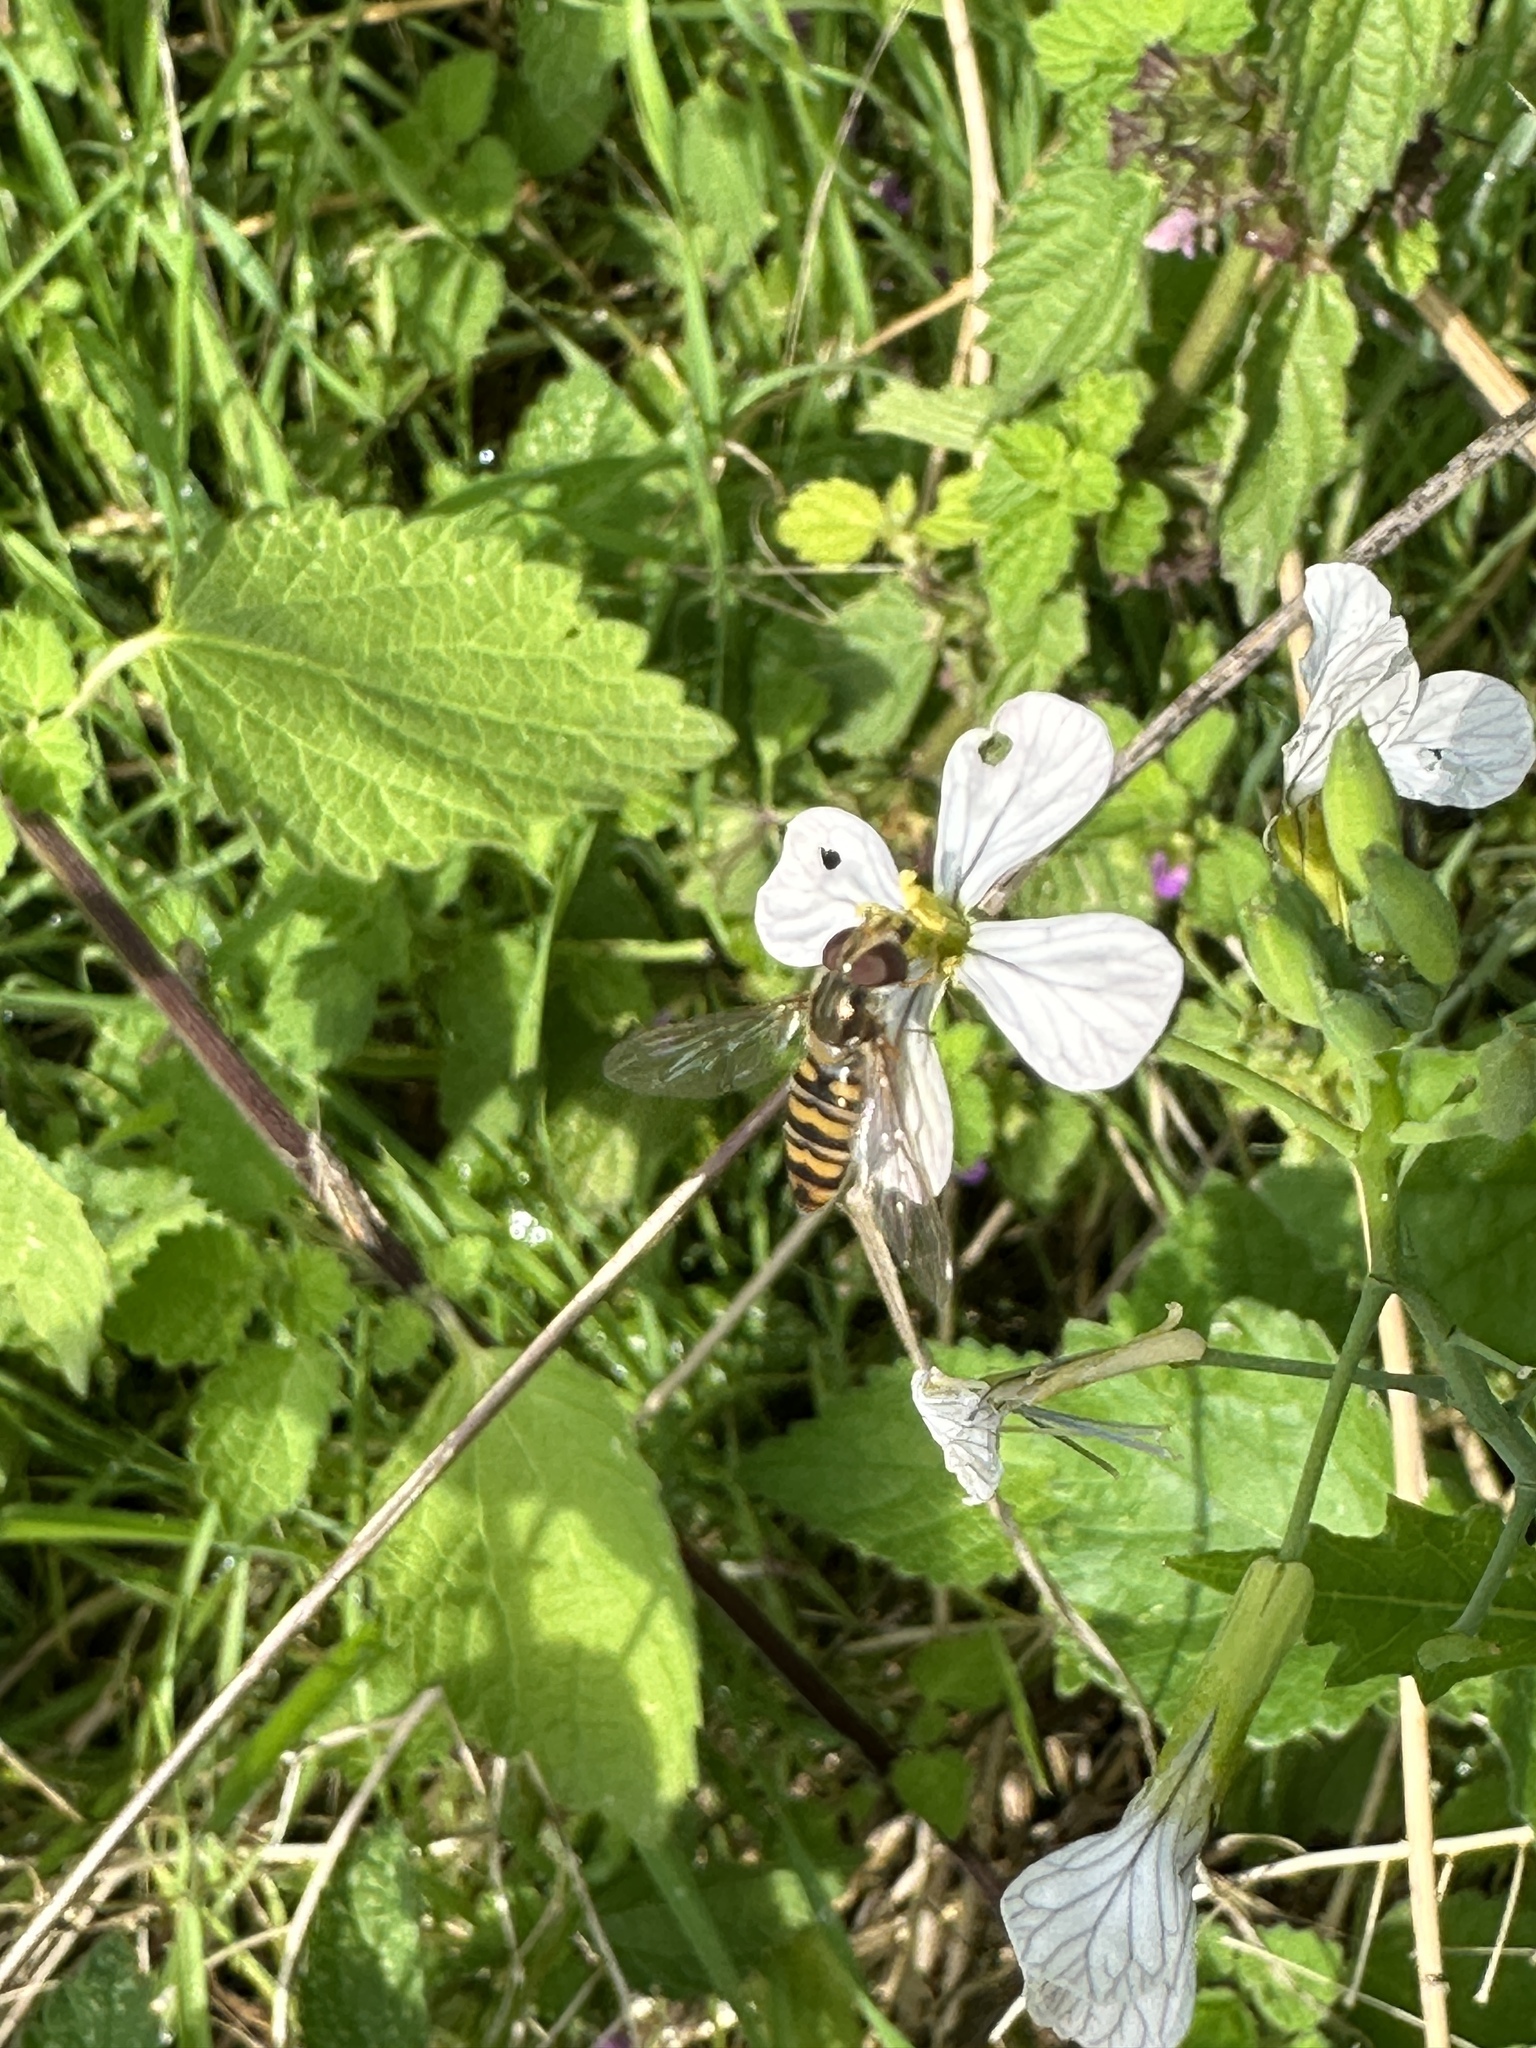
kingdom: Animalia
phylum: Arthropoda
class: Insecta
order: Diptera
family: Syrphidae
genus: Episyrphus
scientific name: Episyrphus balteatus
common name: Marmalade hoverfly
